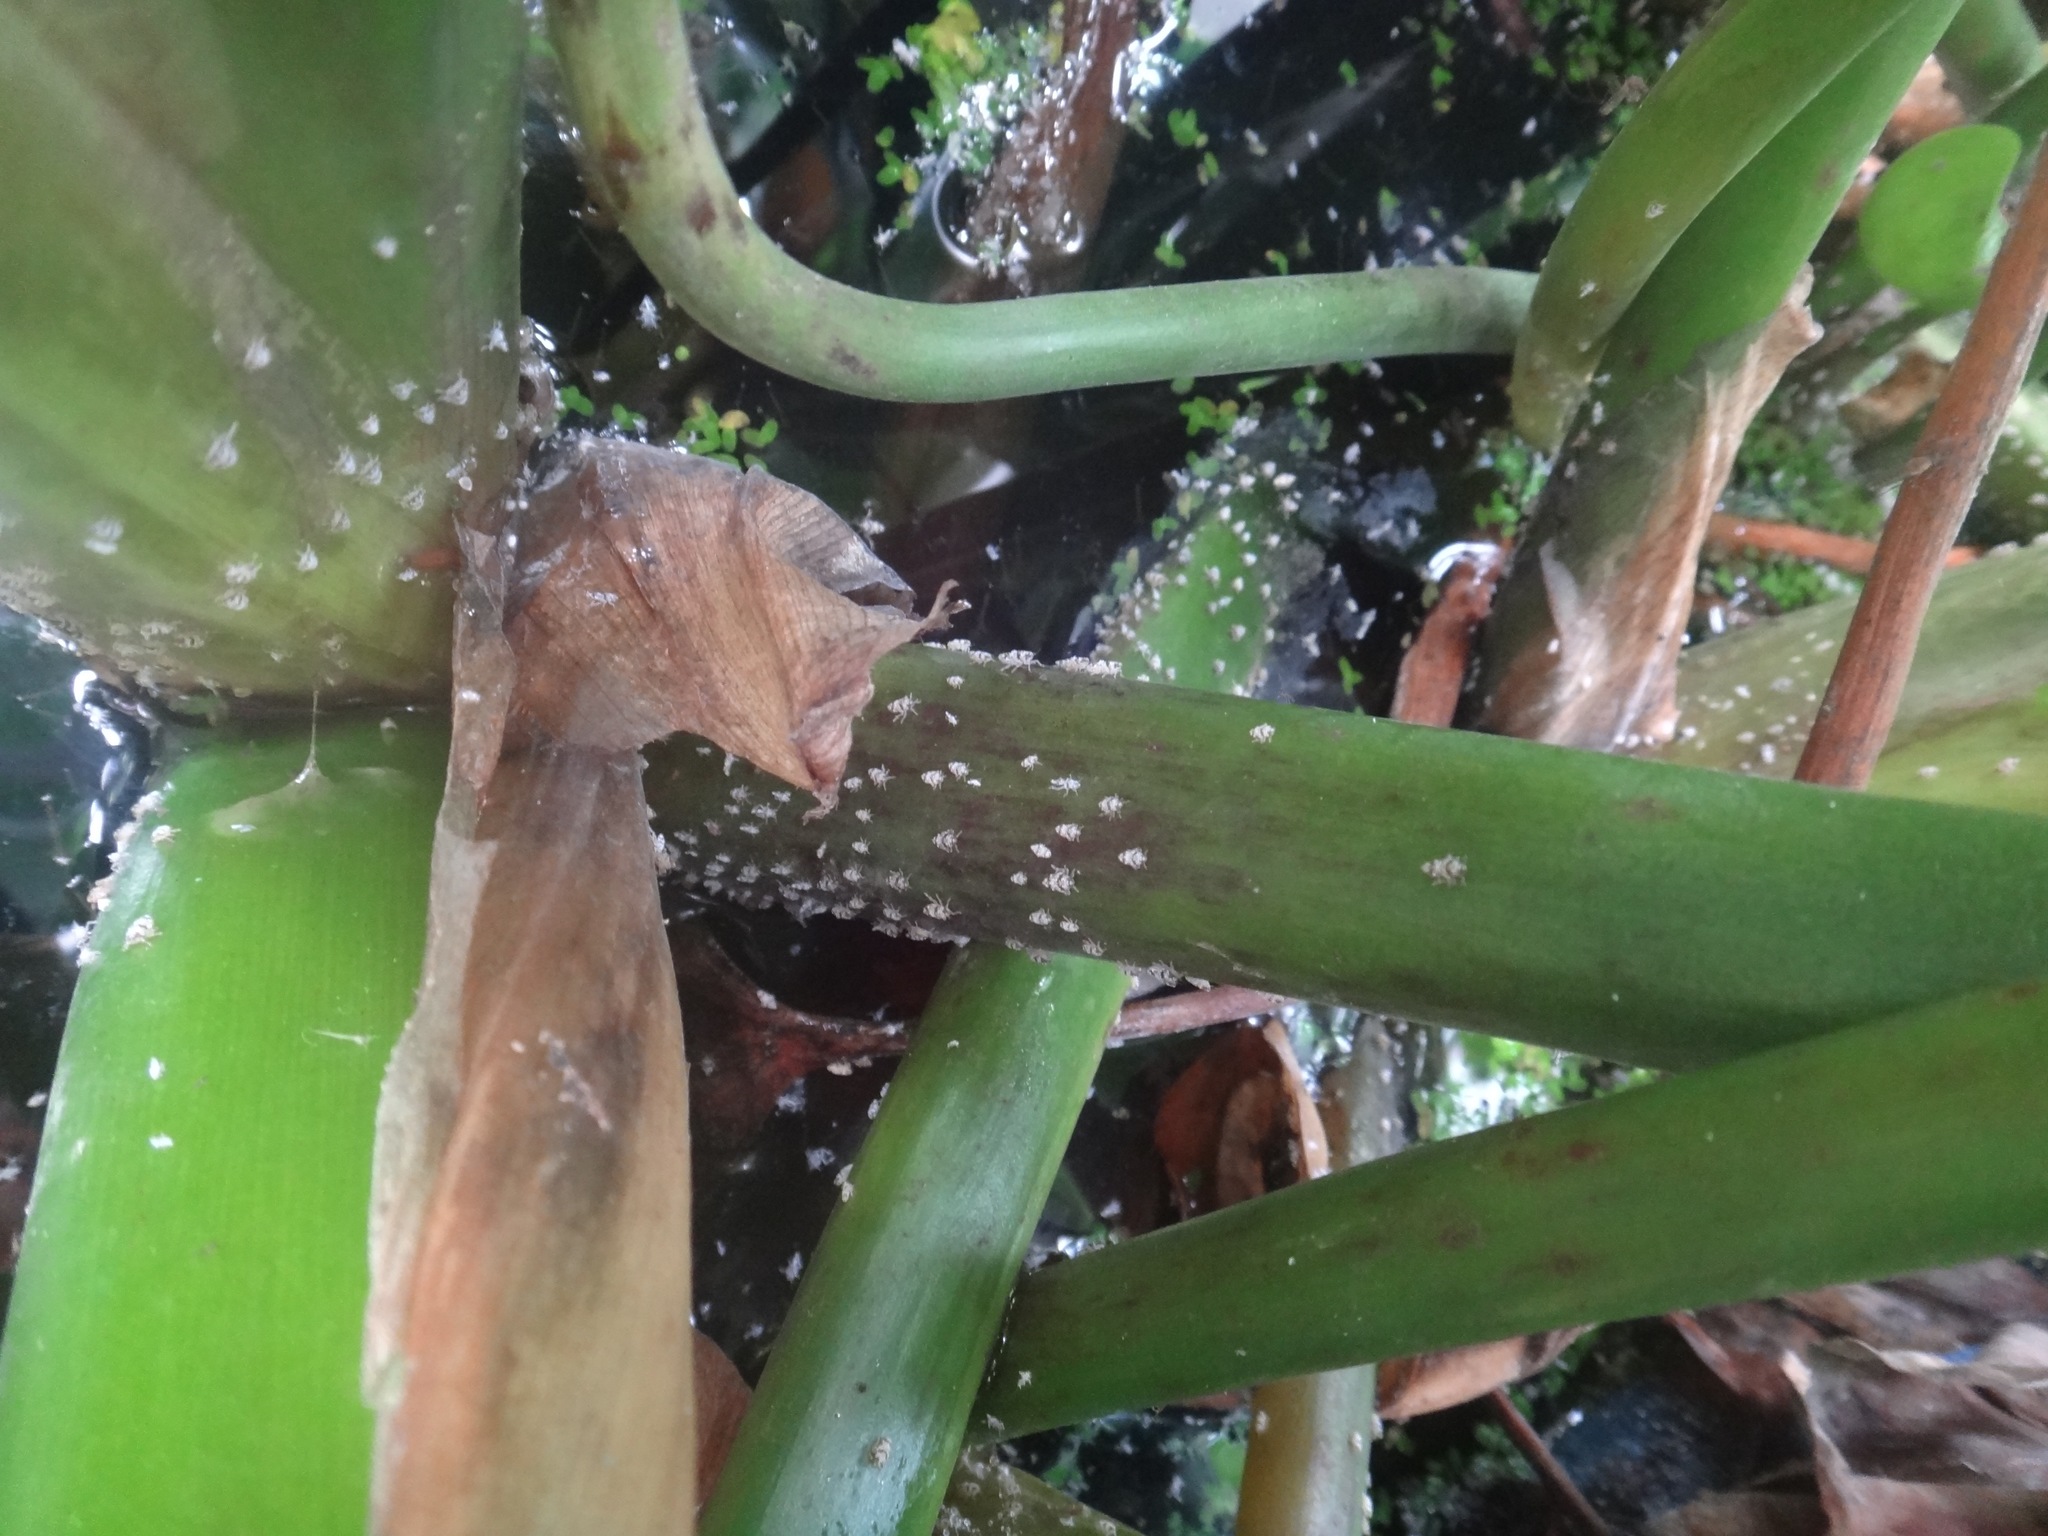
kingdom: Animalia
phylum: Arthropoda
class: Insecta
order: Hemiptera
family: Delphacidae
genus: Megamelus
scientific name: Megamelus scutellaris
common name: South american planthopper
